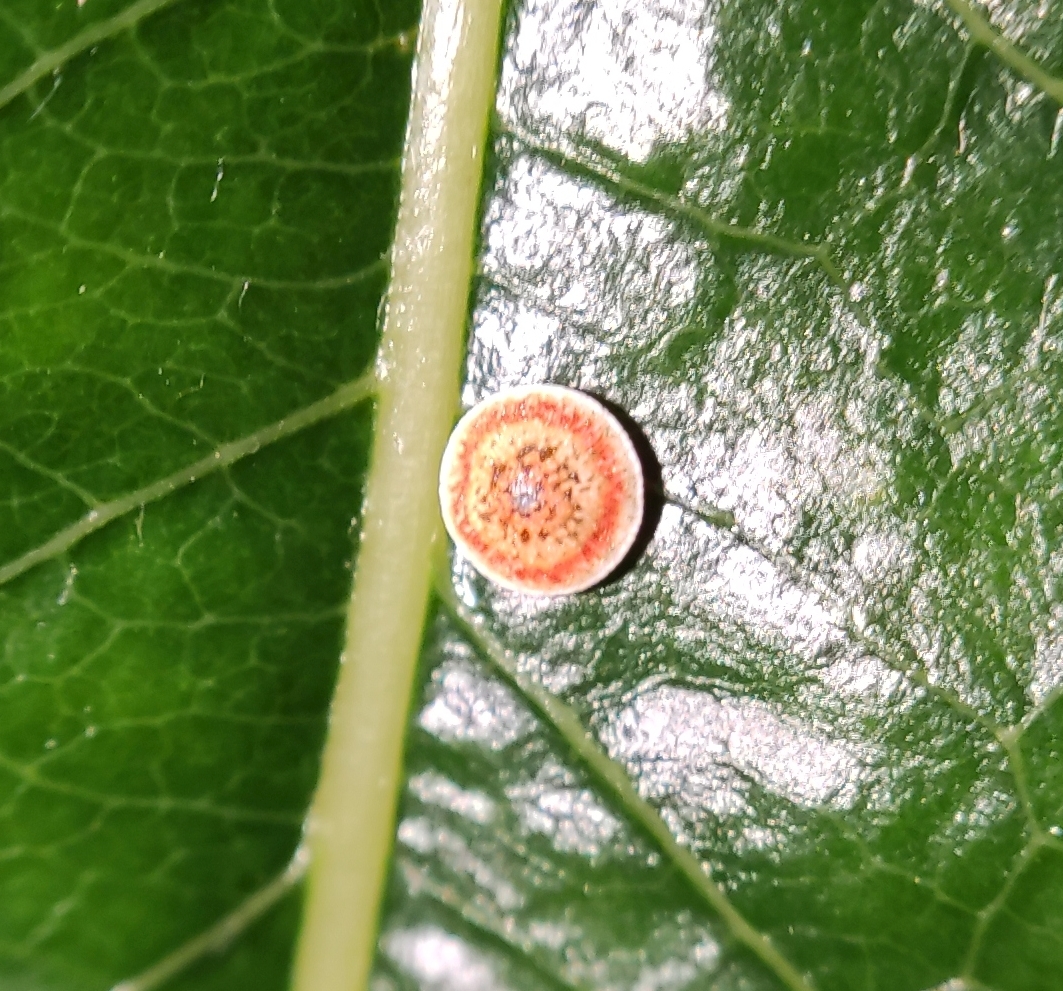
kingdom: Animalia
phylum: Arthropoda
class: Insecta
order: Lepidoptera
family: Notodontidae
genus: Cerura
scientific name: Cerura erminea
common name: Lesser puss moth
